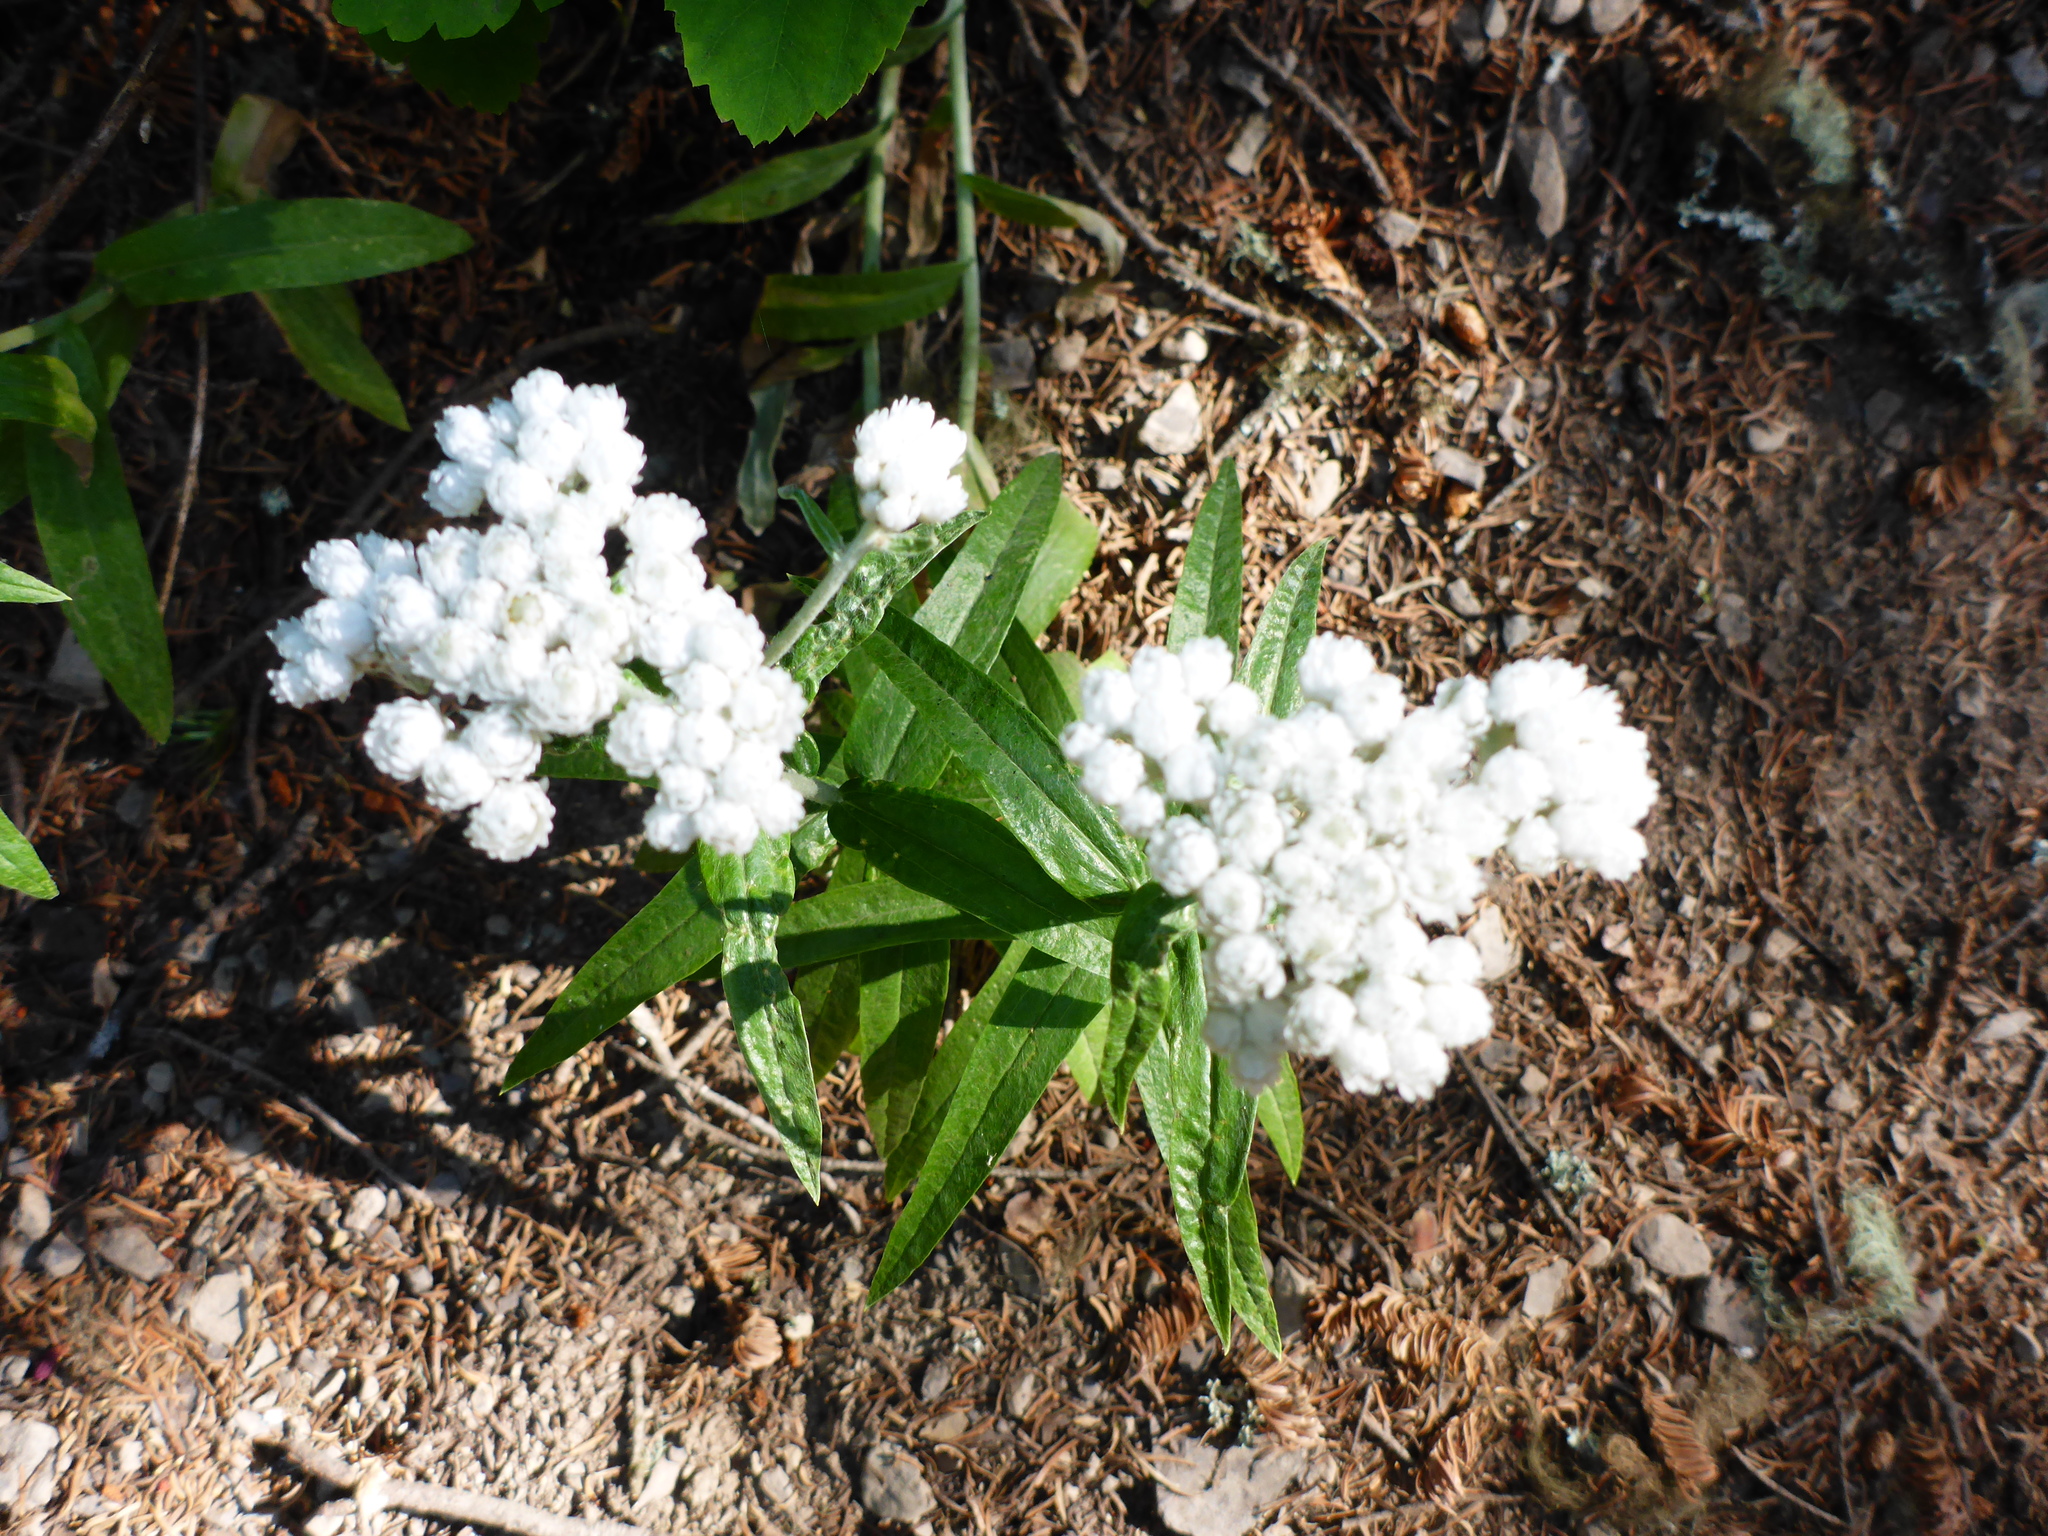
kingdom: Plantae
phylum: Tracheophyta
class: Magnoliopsida
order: Asterales
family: Asteraceae
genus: Anaphalis
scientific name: Anaphalis margaritacea
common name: Pearly everlasting
